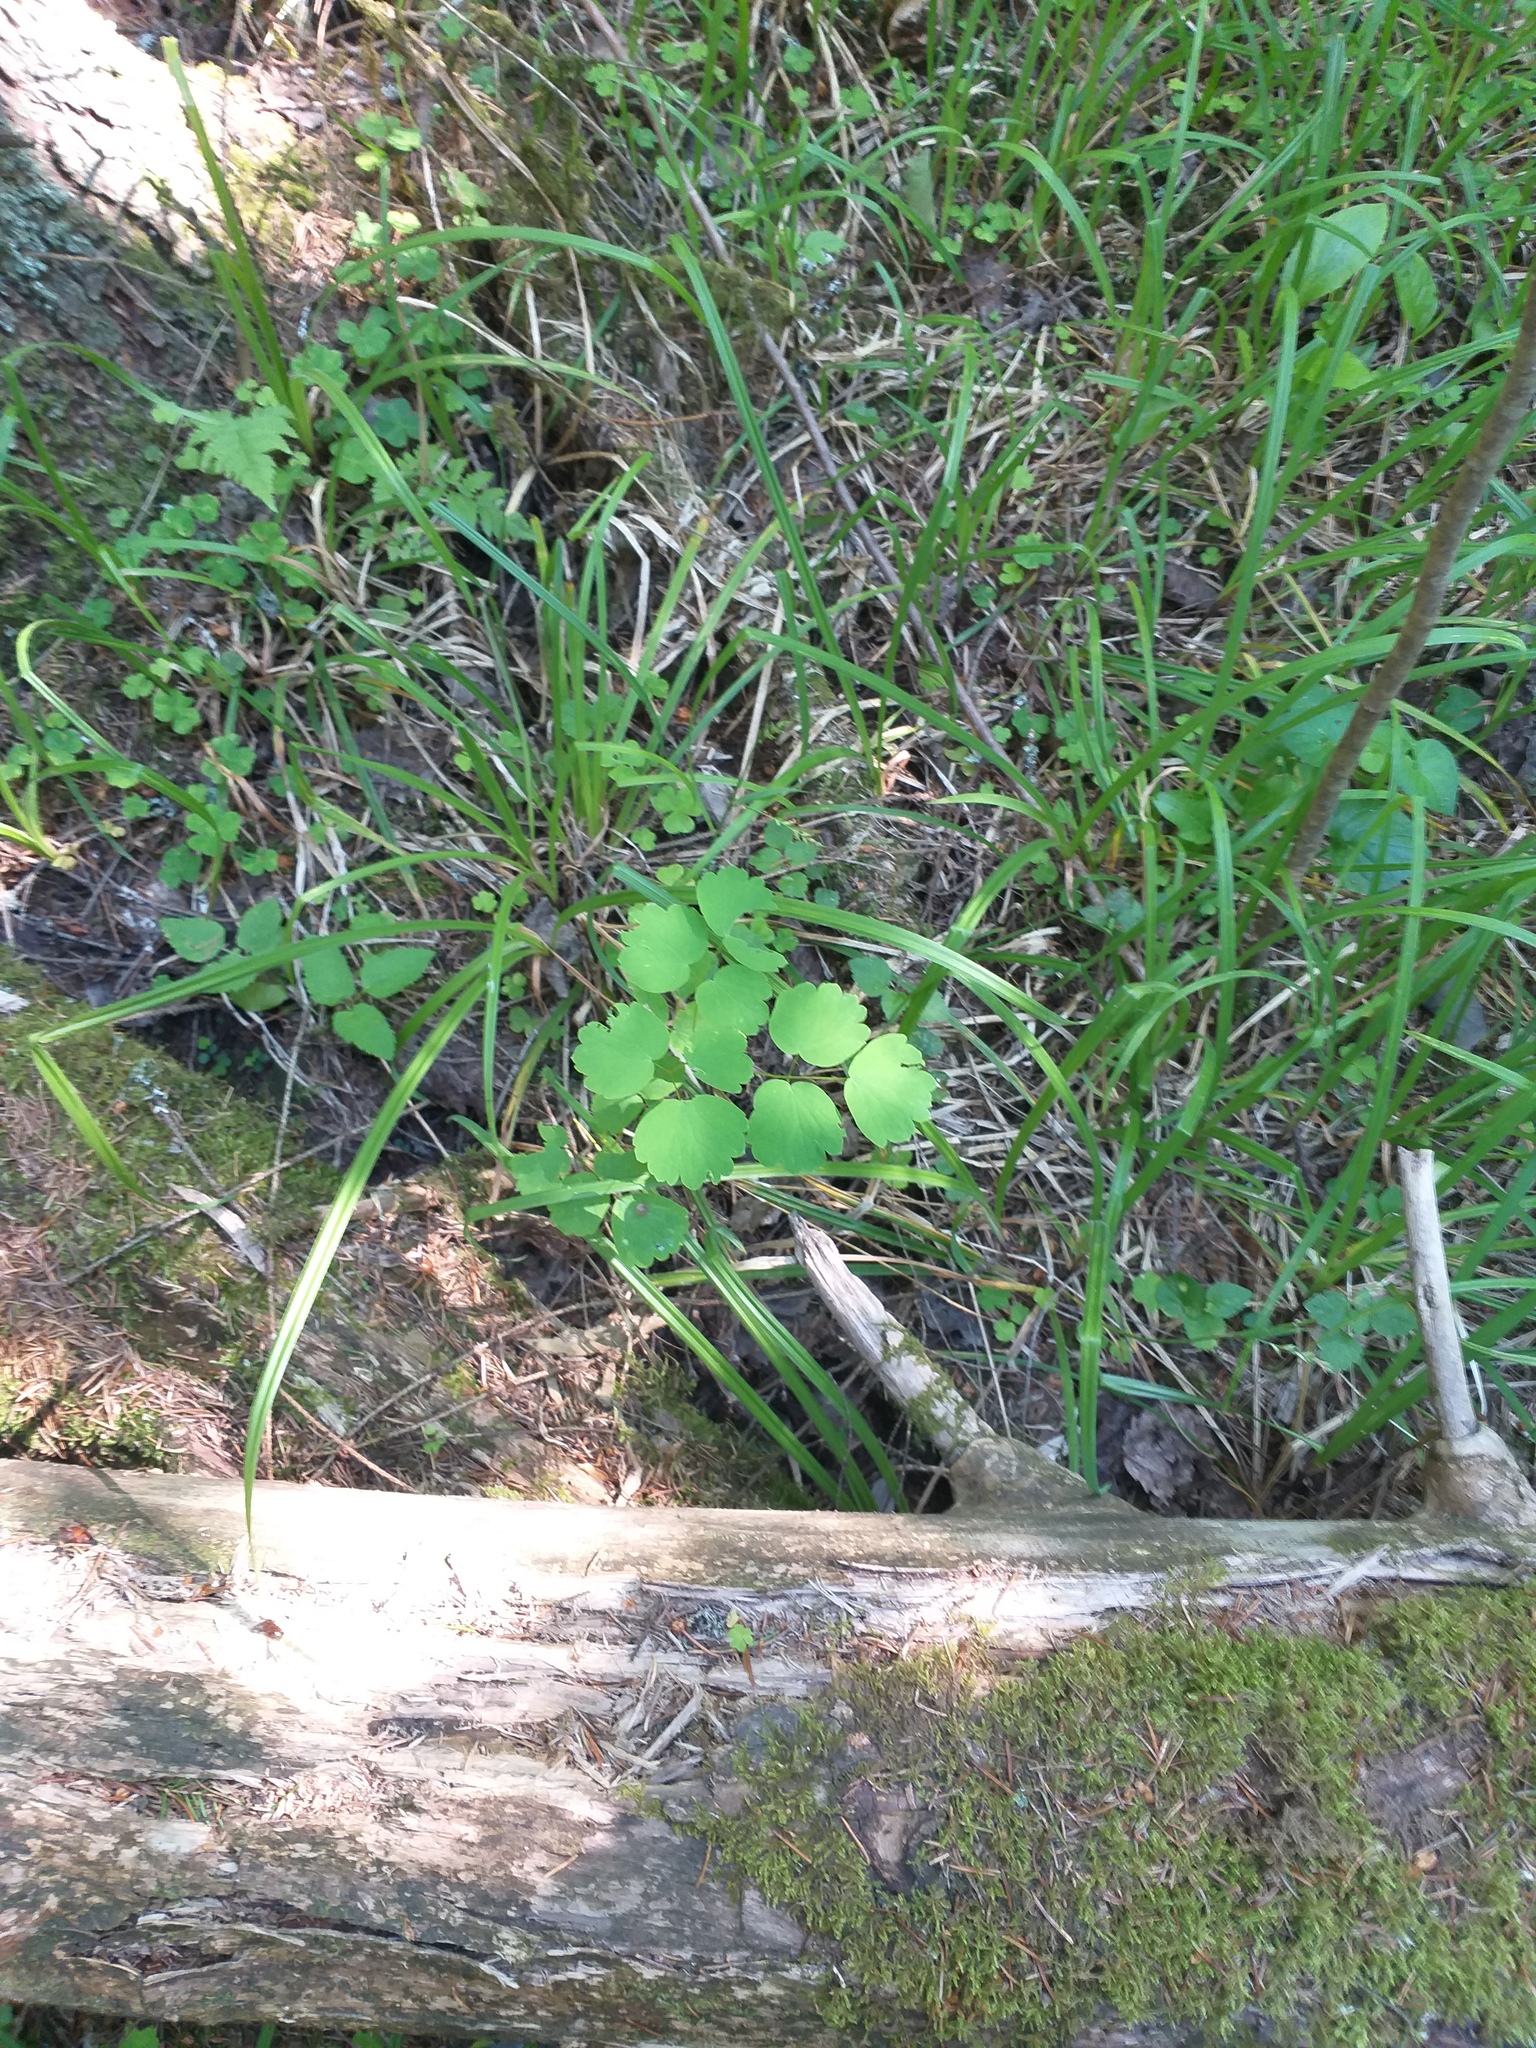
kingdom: Plantae
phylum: Tracheophyta
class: Magnoliopsida
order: Ranunculales
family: Ranunculaceae
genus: Thalictrum
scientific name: Thalictrum aquilegiifolium
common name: French meadow-rue
